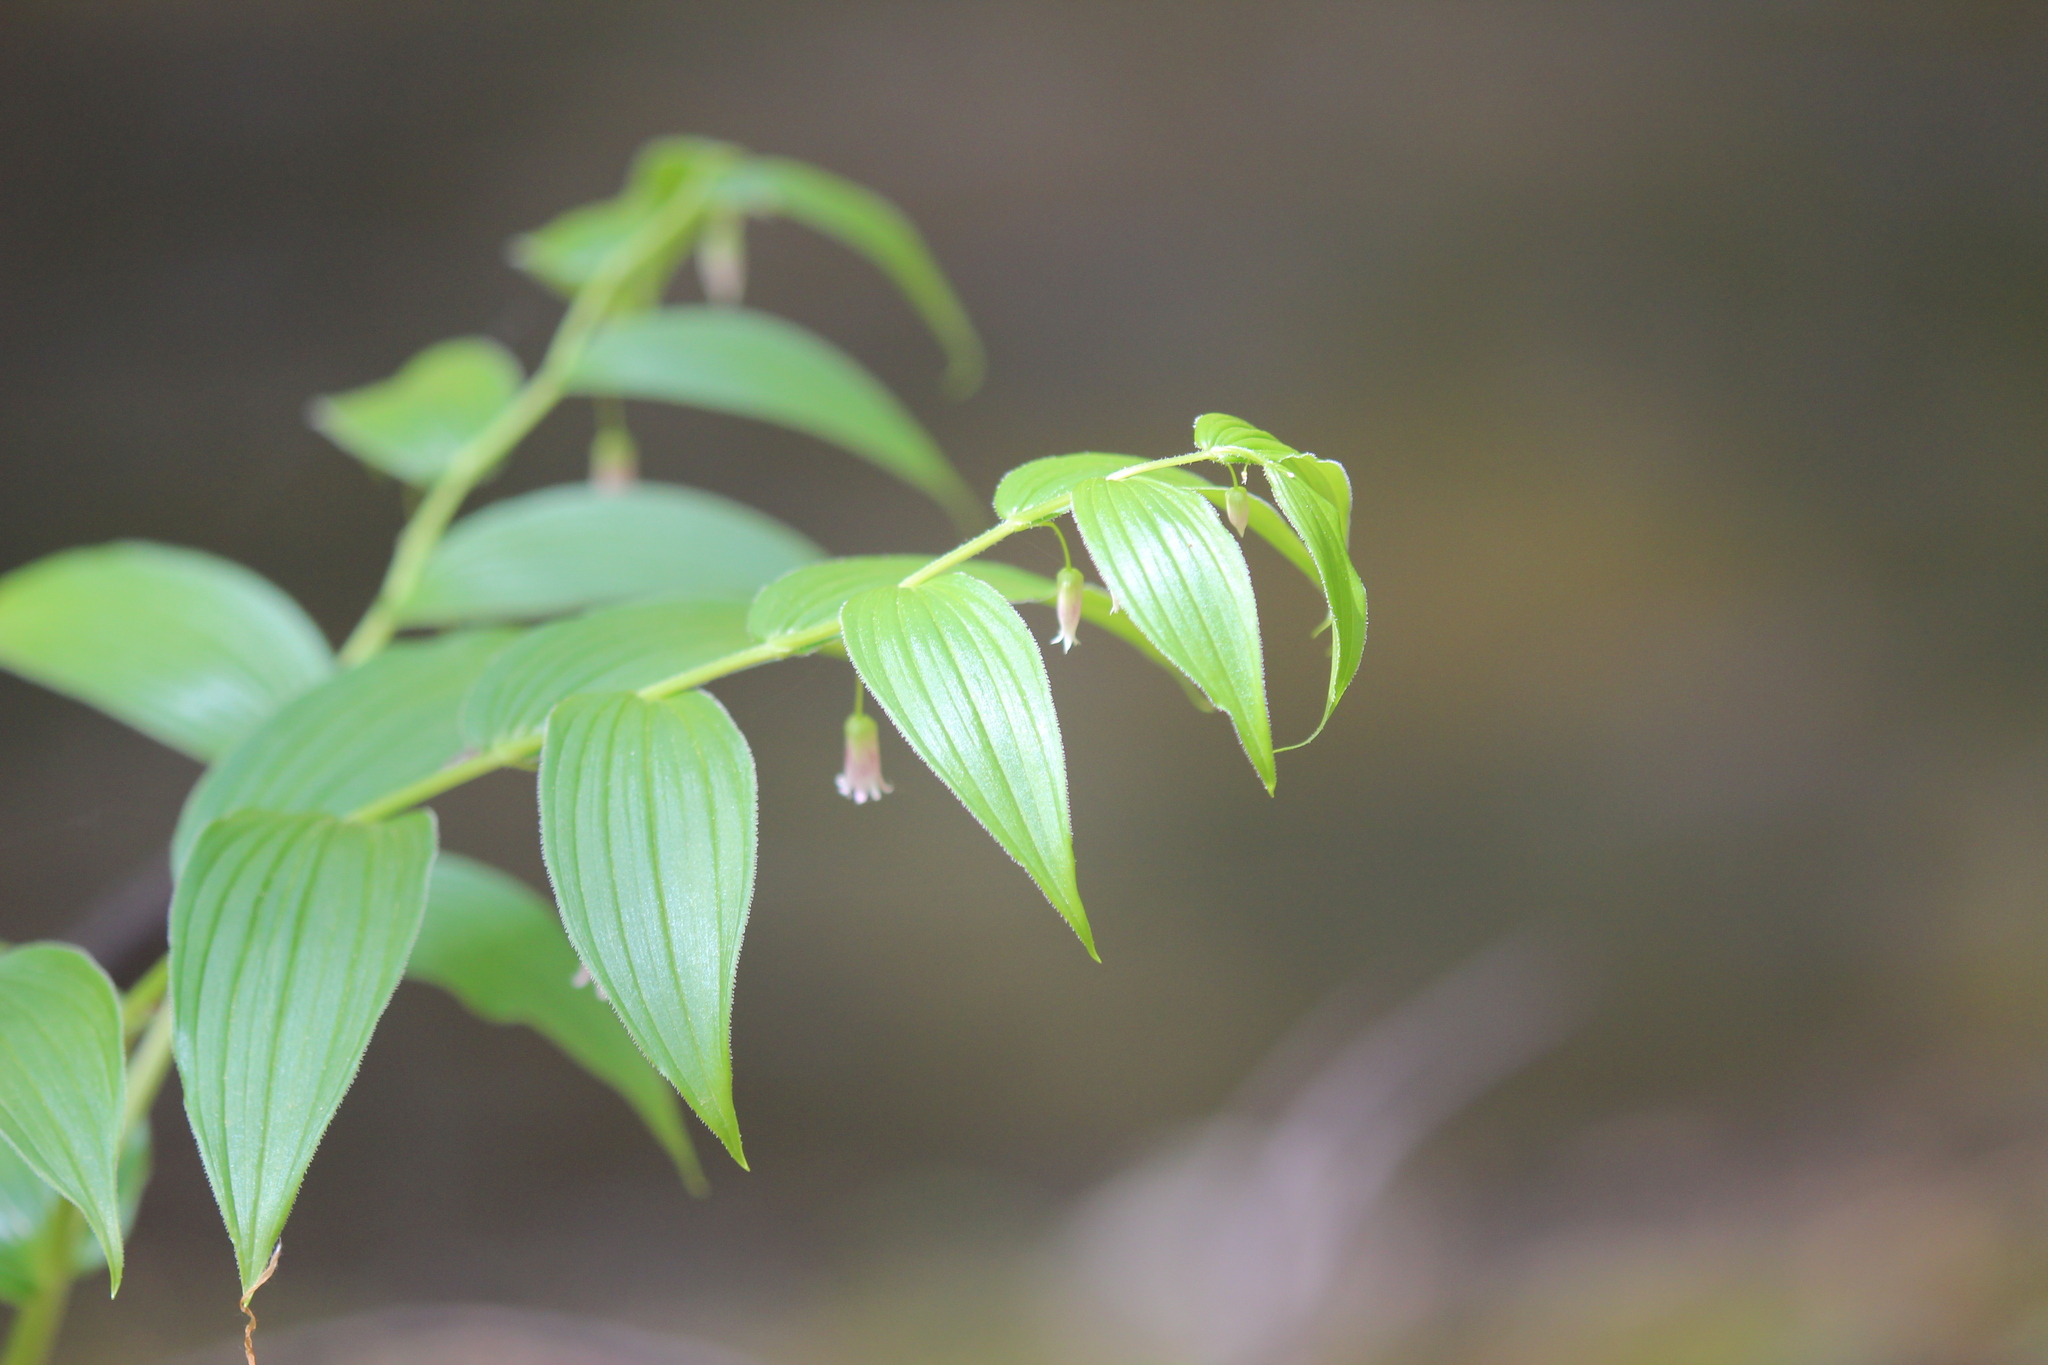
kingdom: Plantae
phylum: Tracheophyta
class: Liliopsida
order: Liliales
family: Liliaceae
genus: Streptopus
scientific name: Streptopus lanceolatus
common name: Rose mandarin
